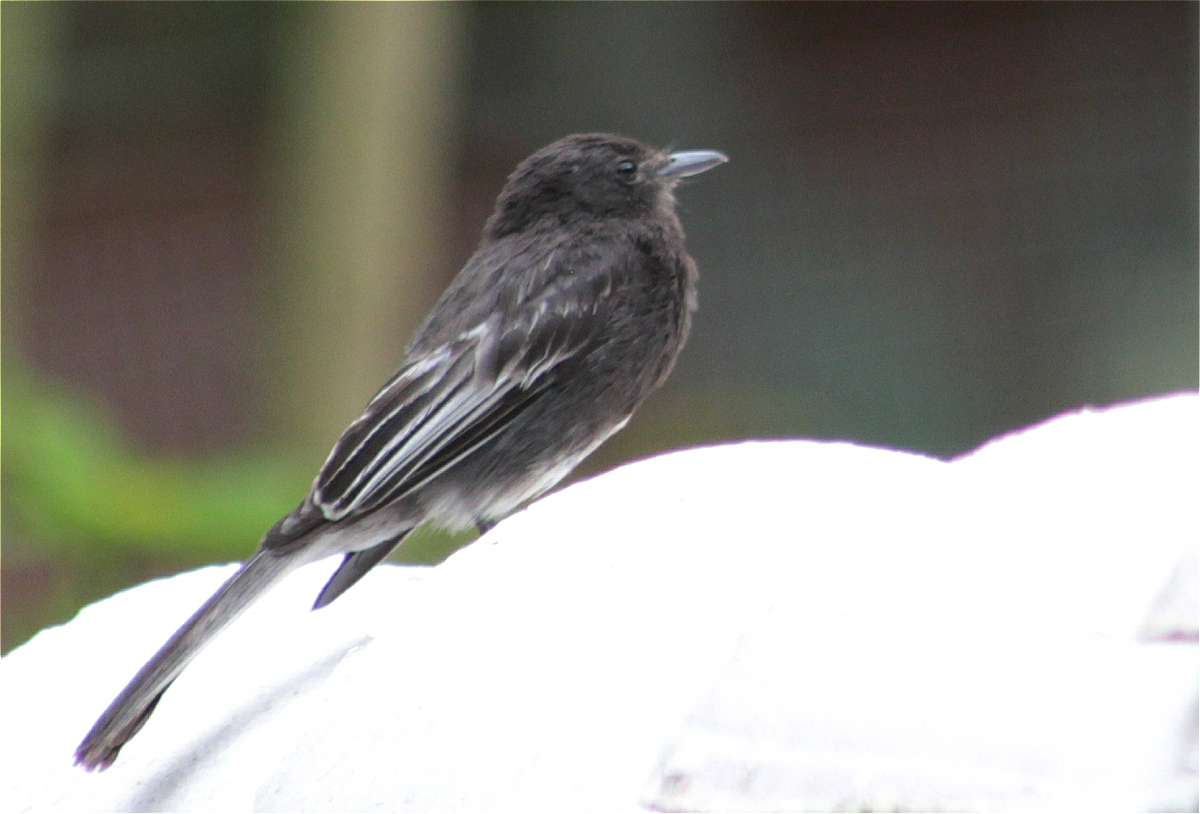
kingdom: Animalia
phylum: Chordata
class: Aves
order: Passeriformes
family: Tyrannidae
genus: Sayornis
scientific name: Sayornis nigricans
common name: Black phoebe
